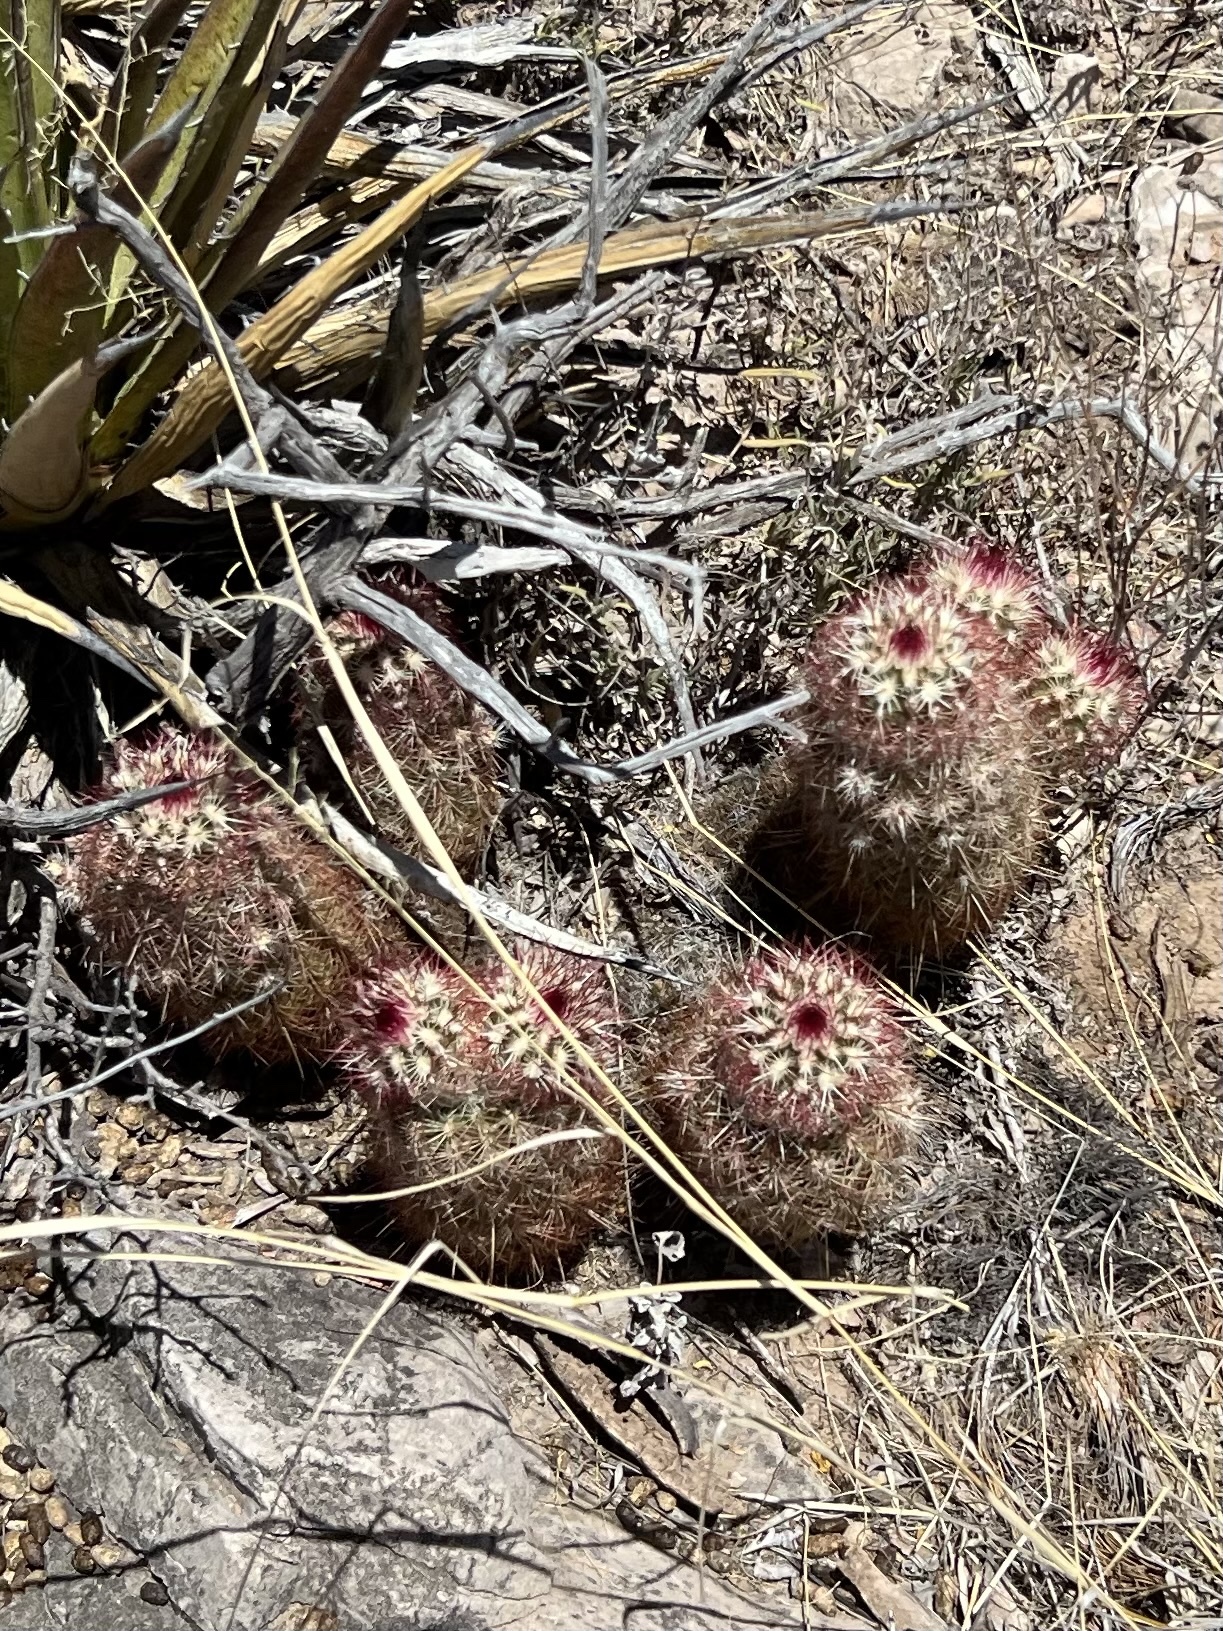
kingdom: Plantae
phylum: Tracheophyta
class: Magnoliopsida
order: Caryophyllales
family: Cactaceae
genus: Echinocereus
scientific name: Echinocereus viridiflorus
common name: Nylon hedgehog cactus
